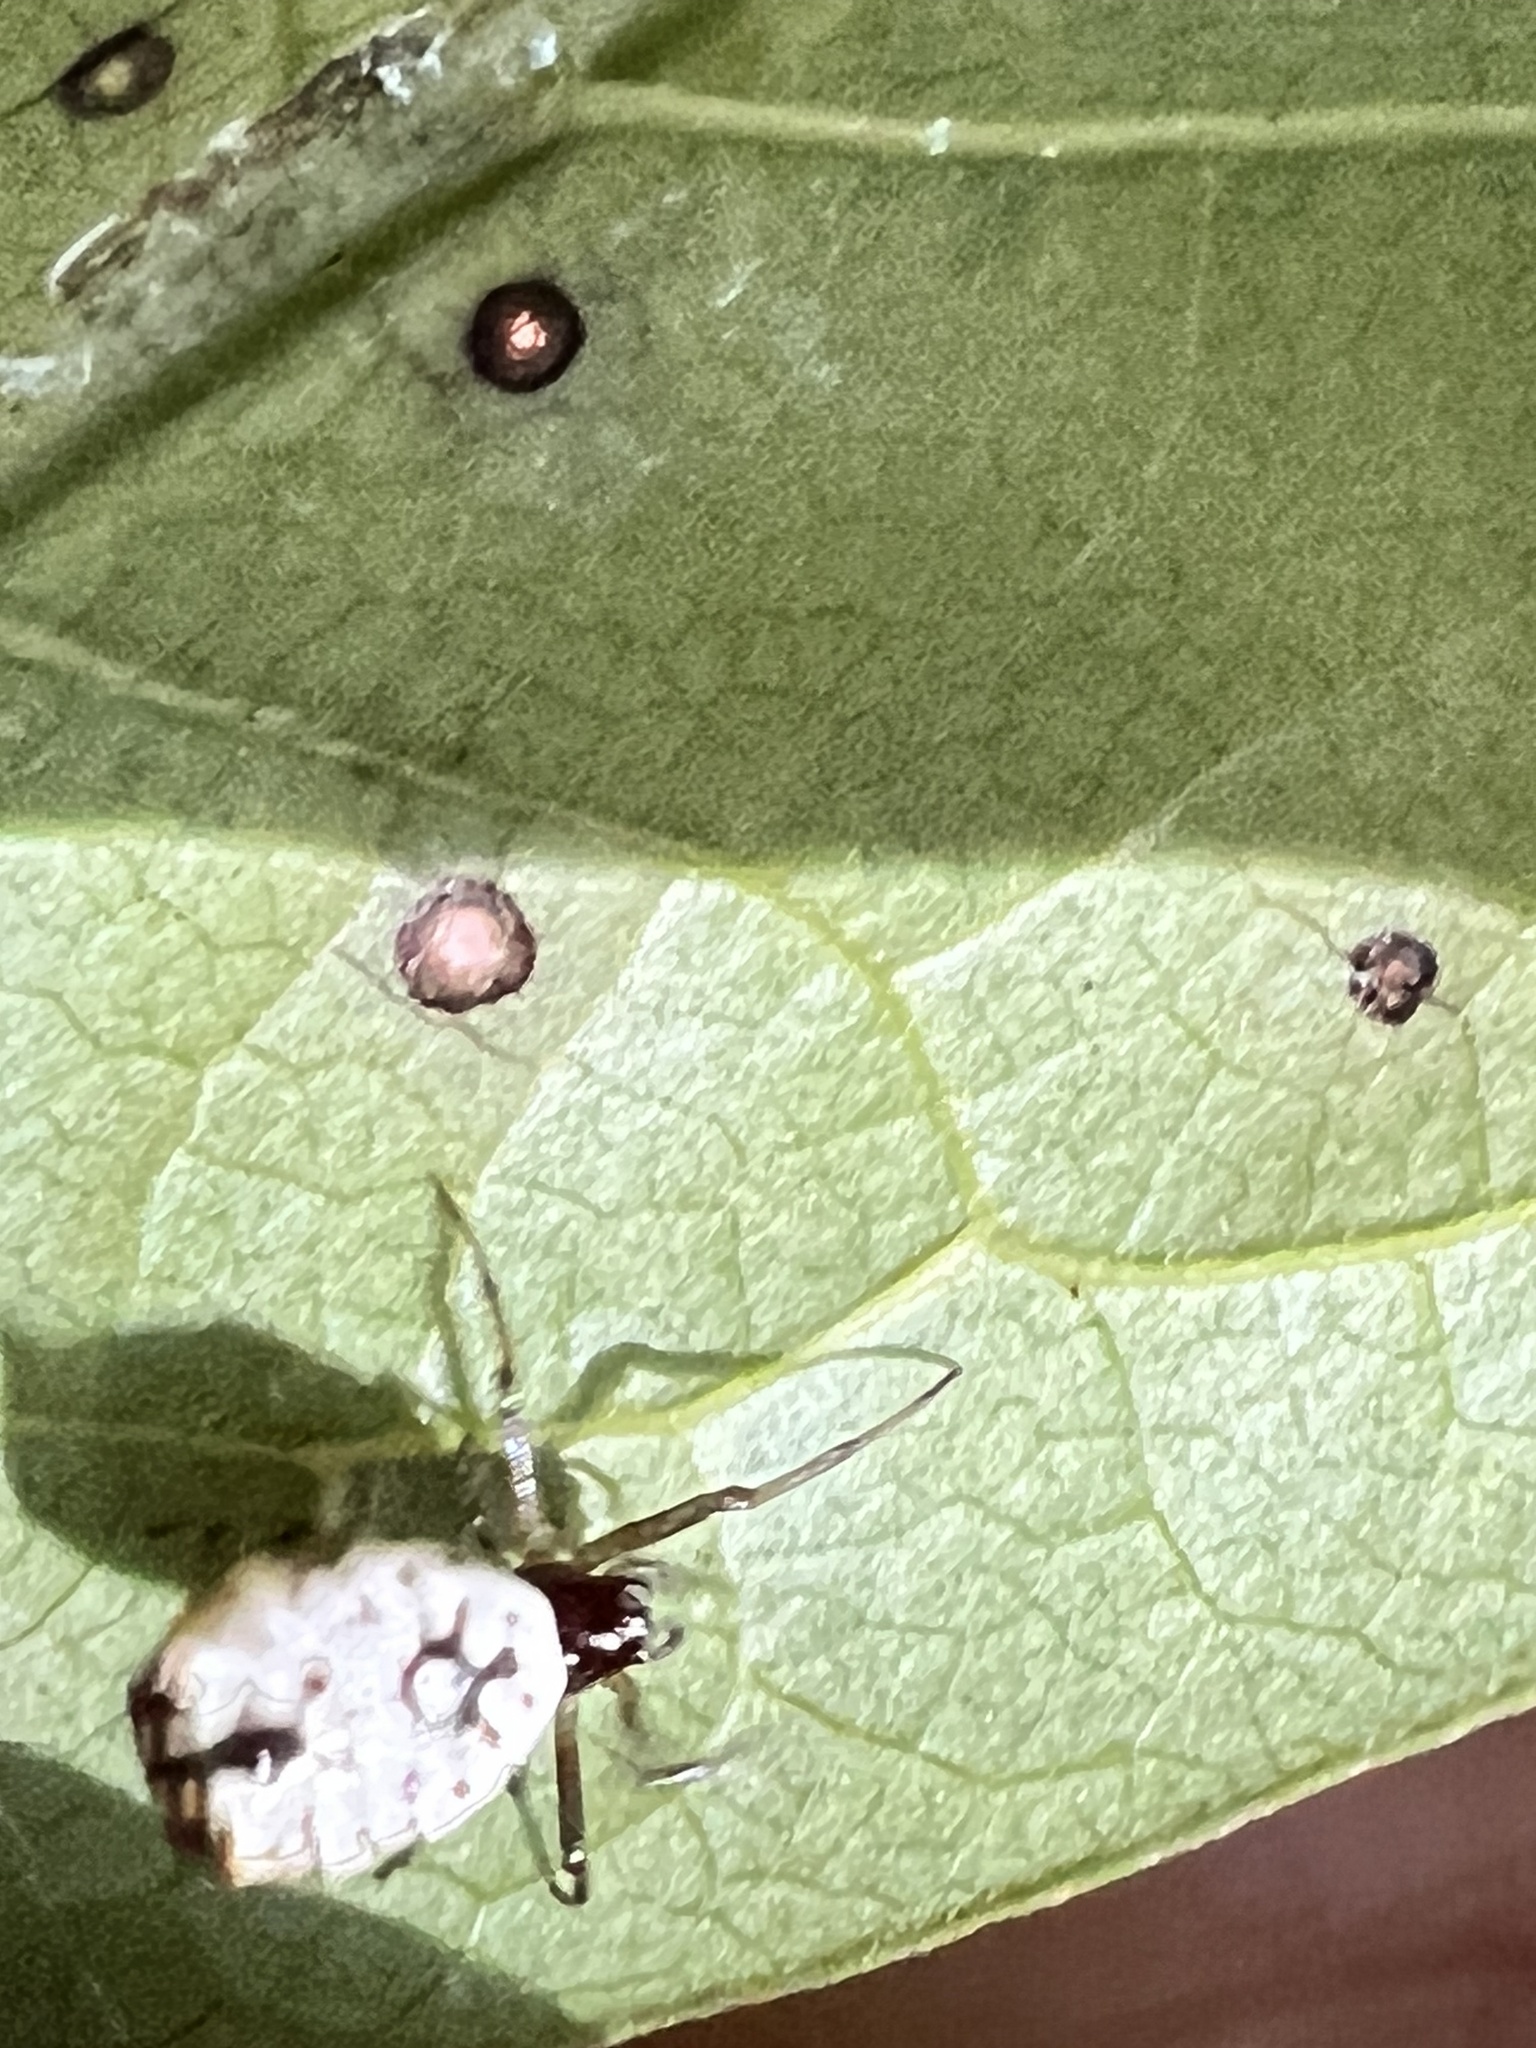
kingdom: Animalia
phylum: Arthropoda
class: Arachnida
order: Araneae
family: Araneidae
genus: Micrathena
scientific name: Micrathena mitrata
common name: Orb weavers
